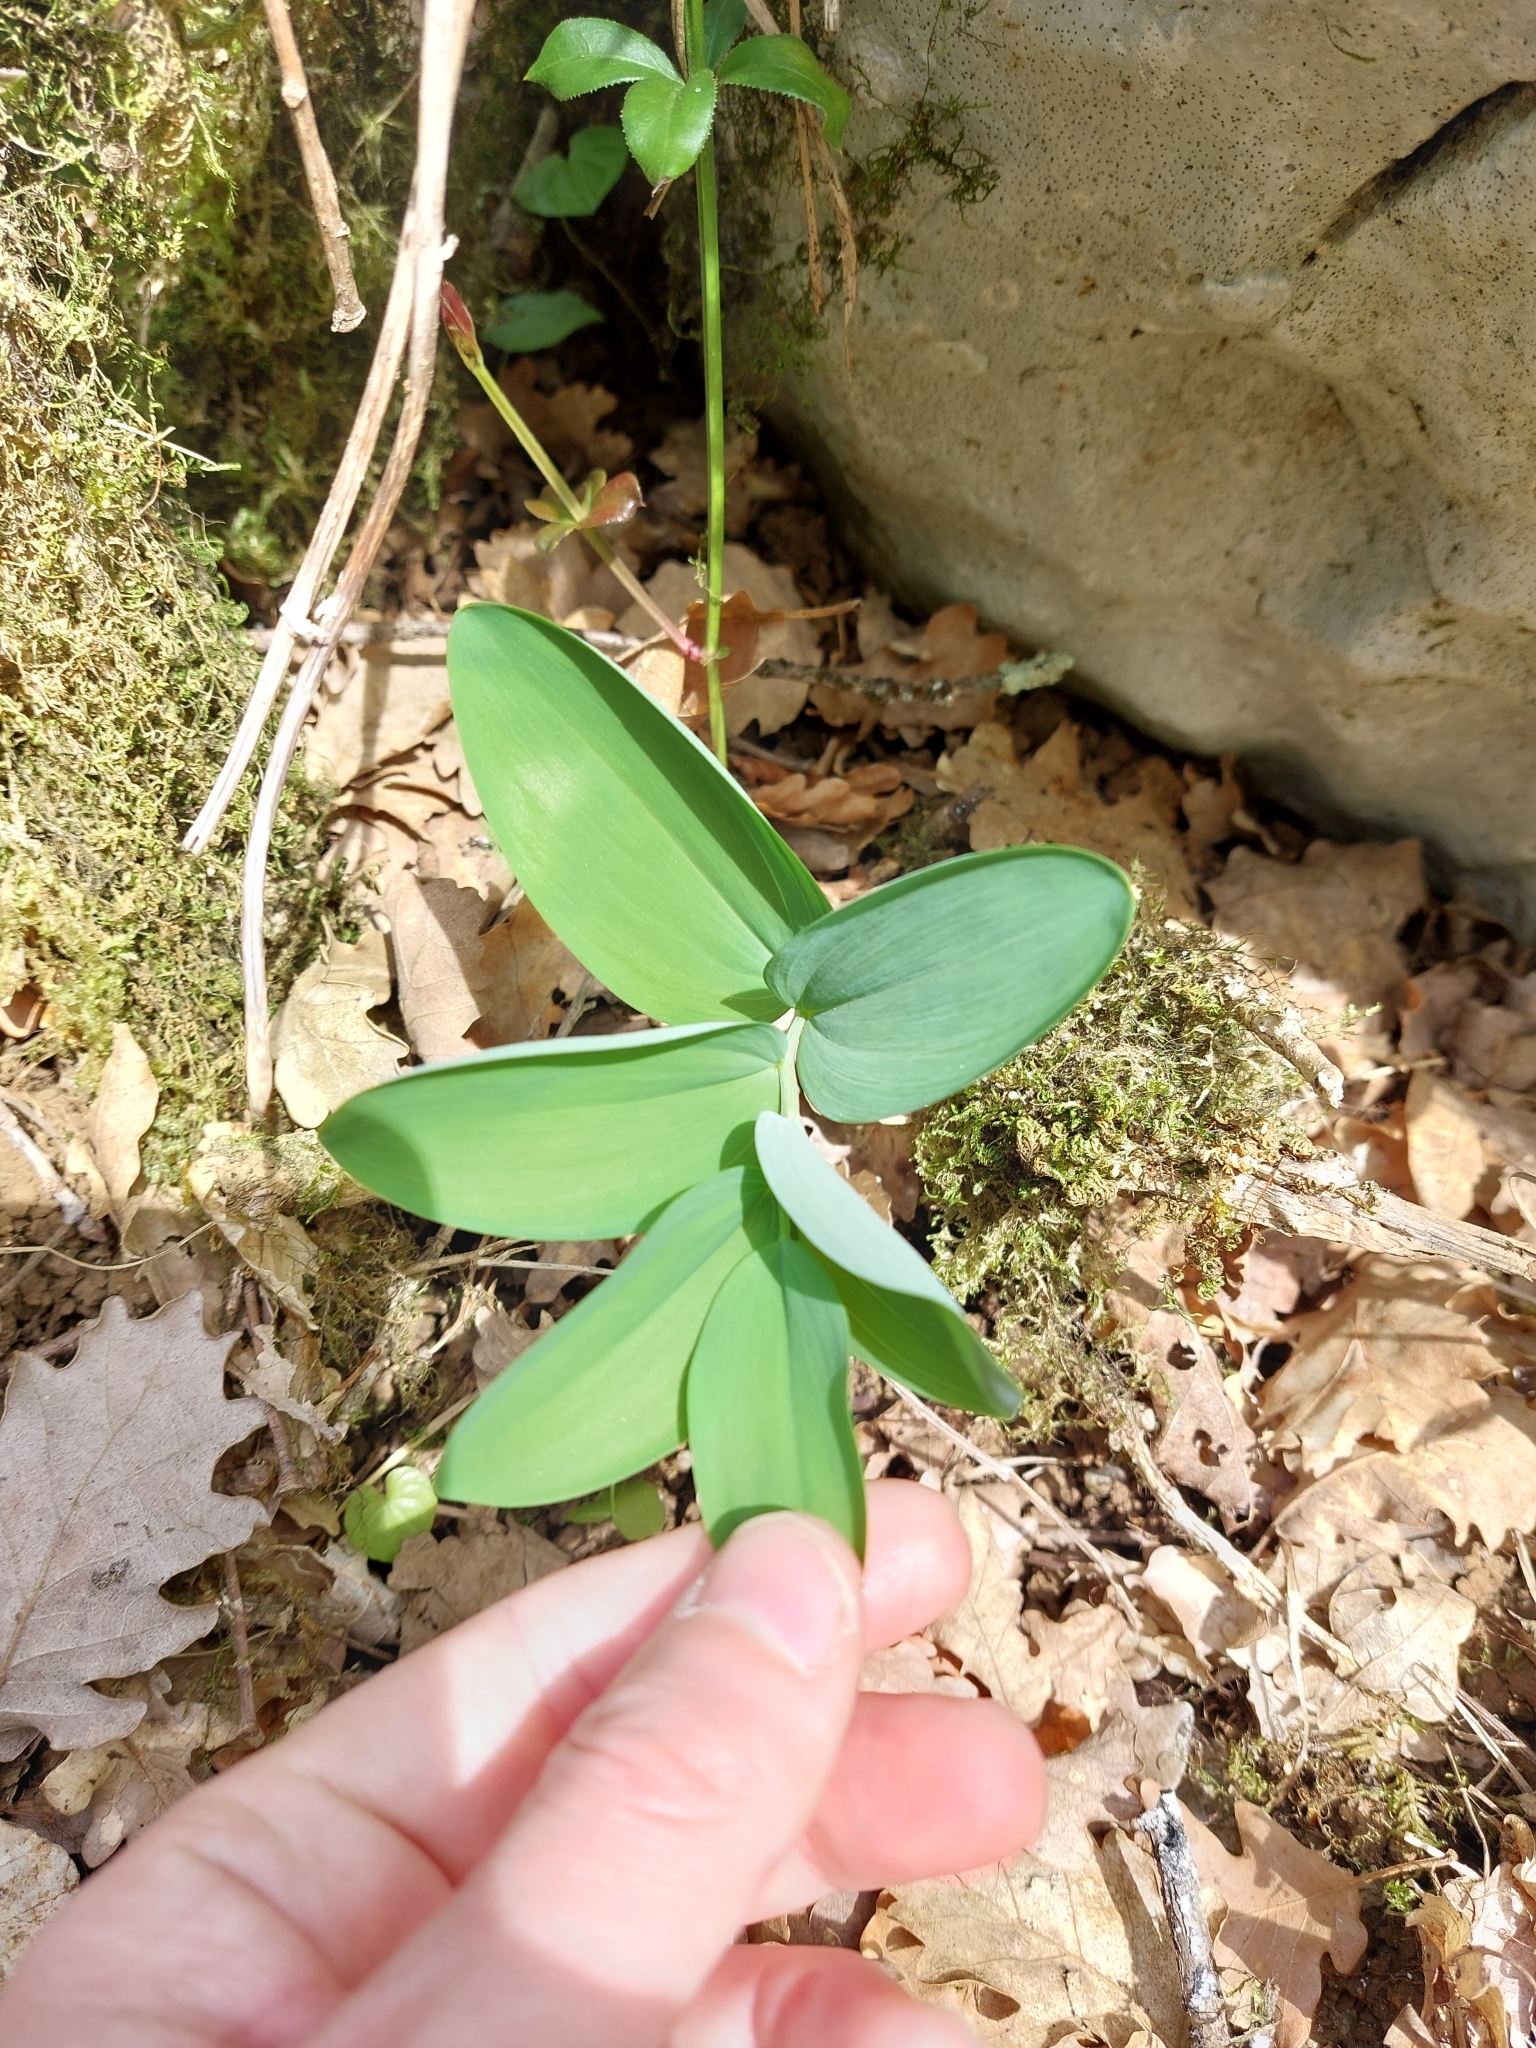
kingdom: Plantae
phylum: Tracheophyta
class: Liliopsida
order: Asparagales
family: Asparagaceae
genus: Polygonatum
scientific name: Polygonatum odoratum
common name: Angular solomon's-seal
